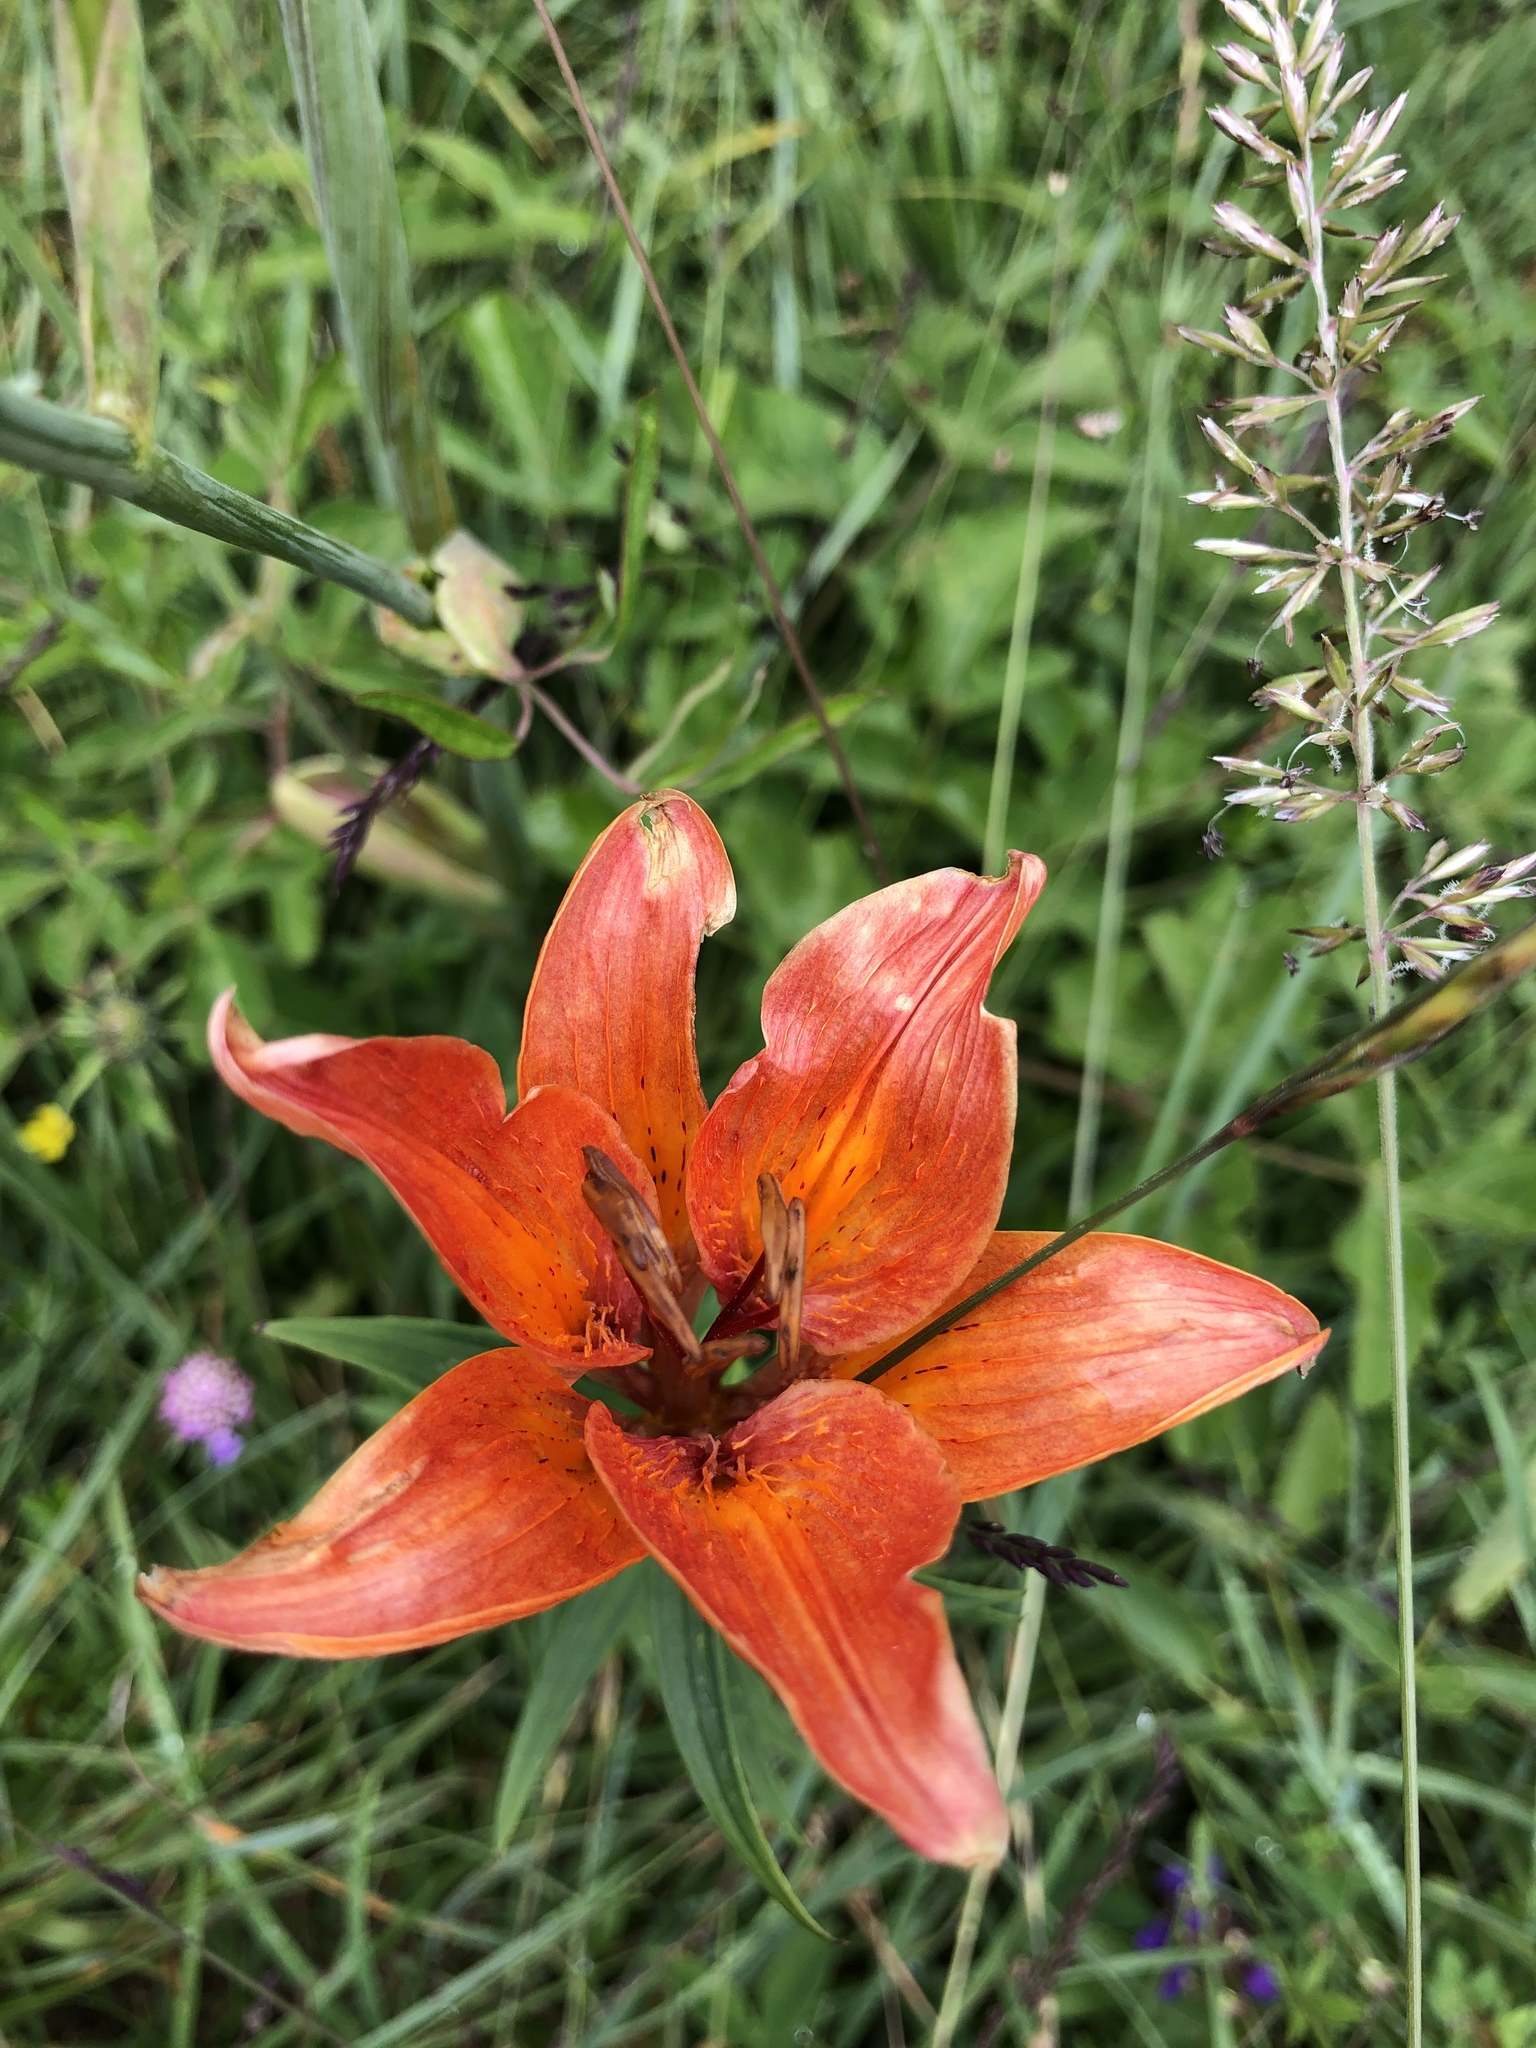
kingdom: Plantae
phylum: Tracheophyta
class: Liliopsida
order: Liliales
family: Liliaceae
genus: Lilium
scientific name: Lilium bulbiferum
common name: Orange lily
